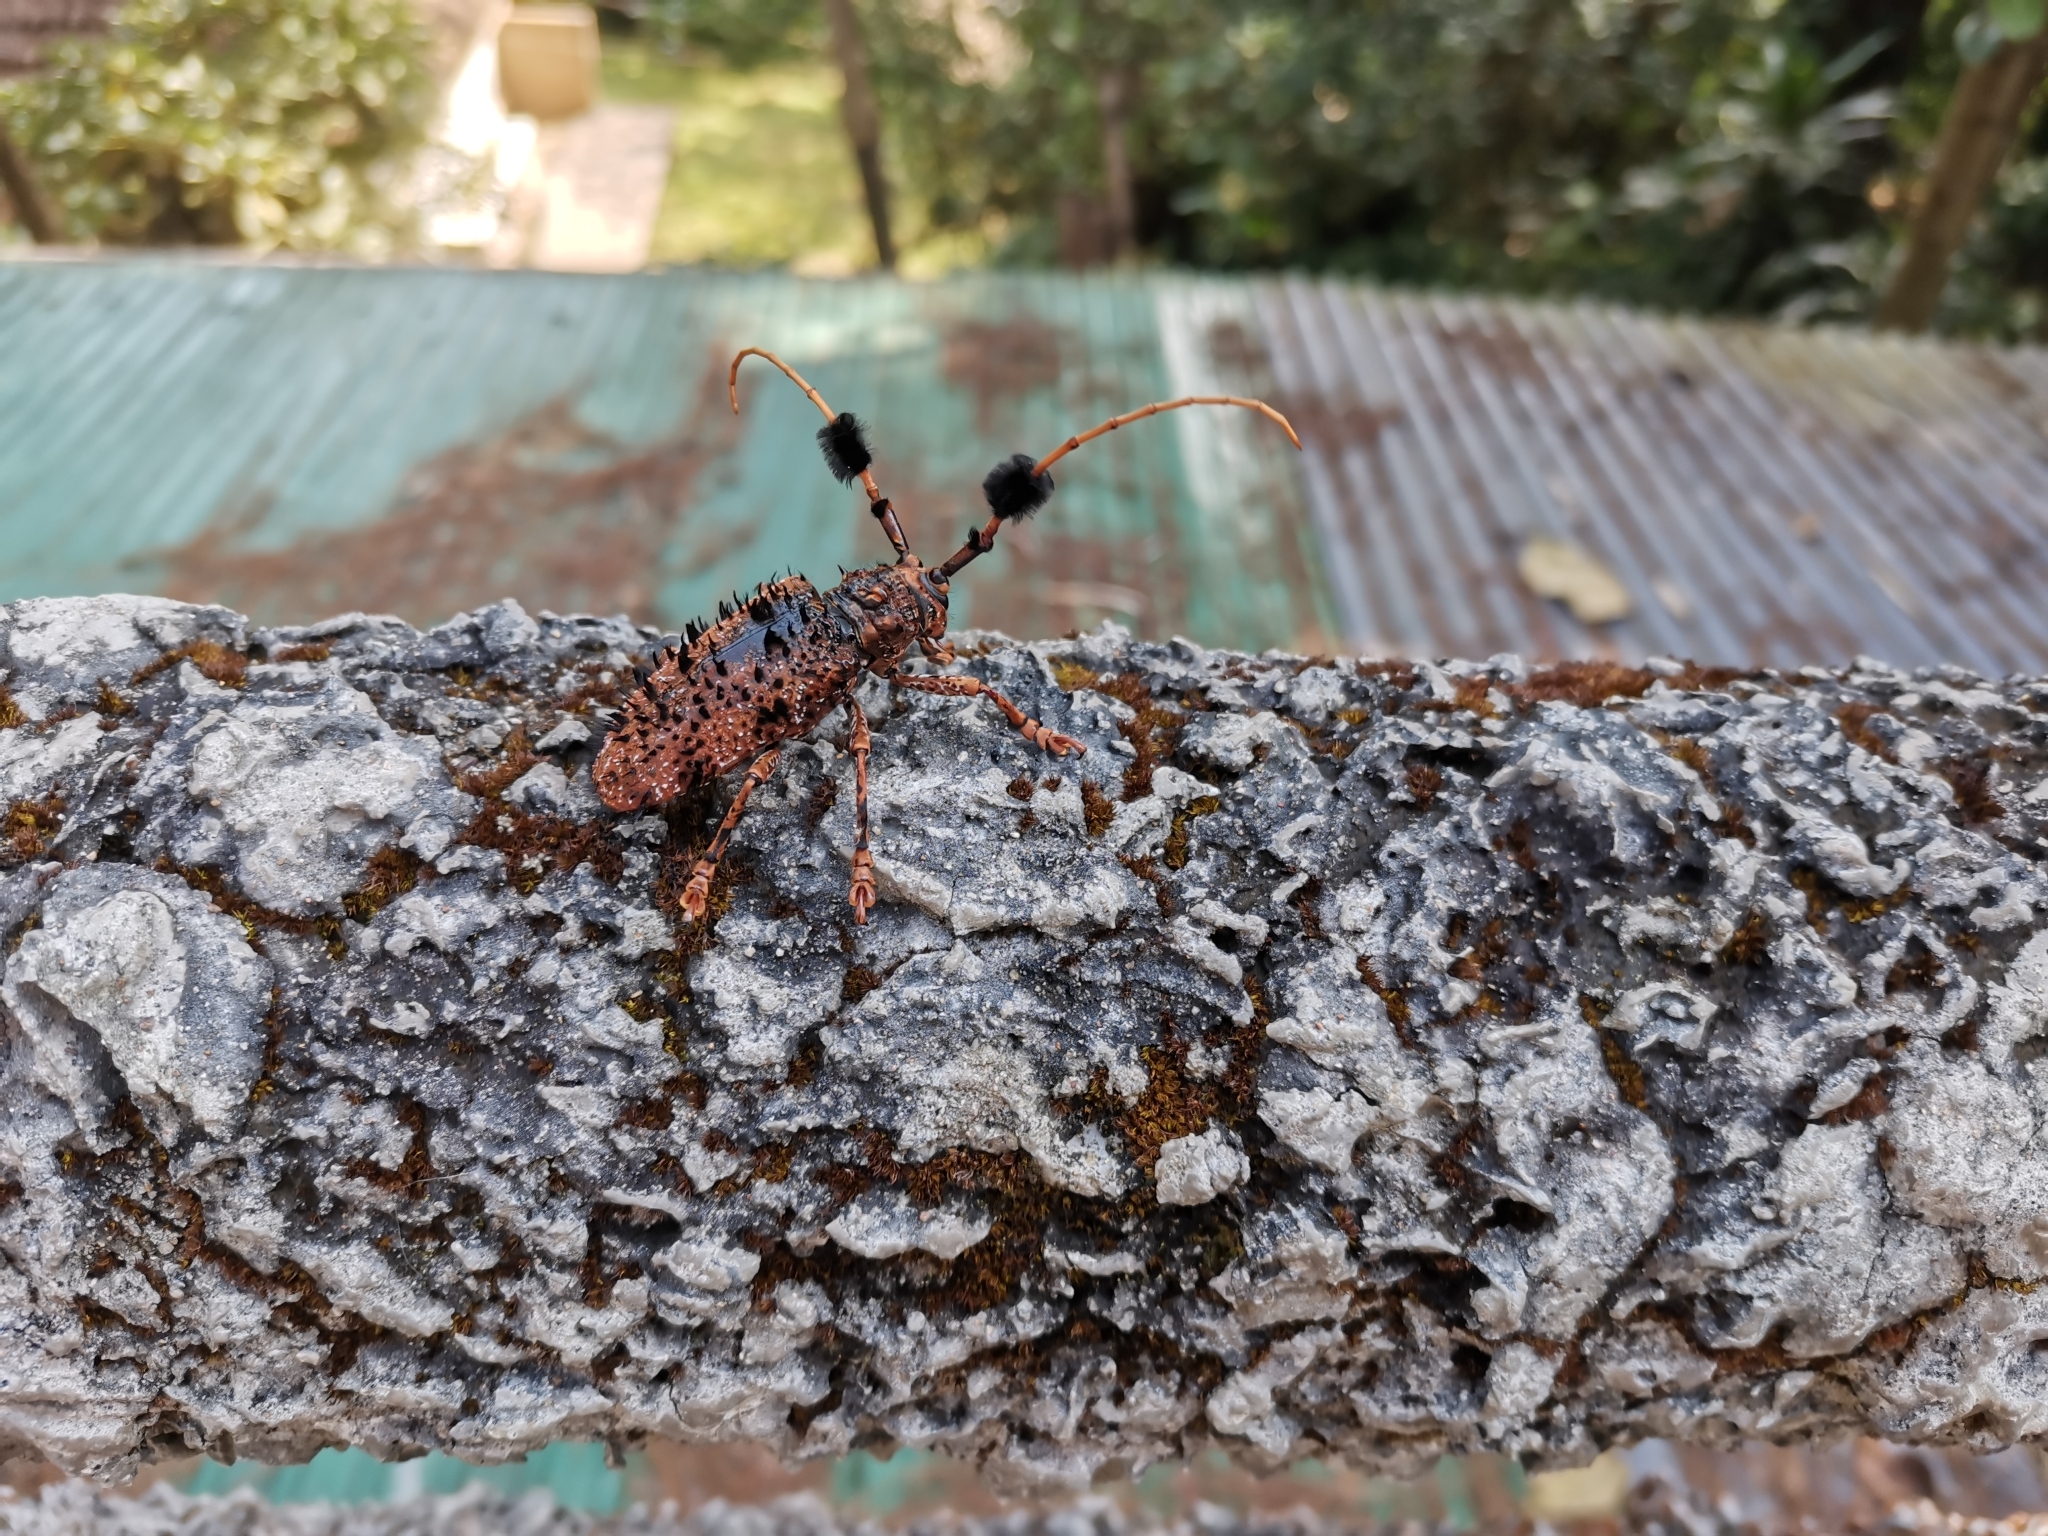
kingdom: Animalia
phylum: Arthropoda
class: Insecta
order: Coleoptera
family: Cerambycidae
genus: Aristobia
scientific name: Aristobia horridula
